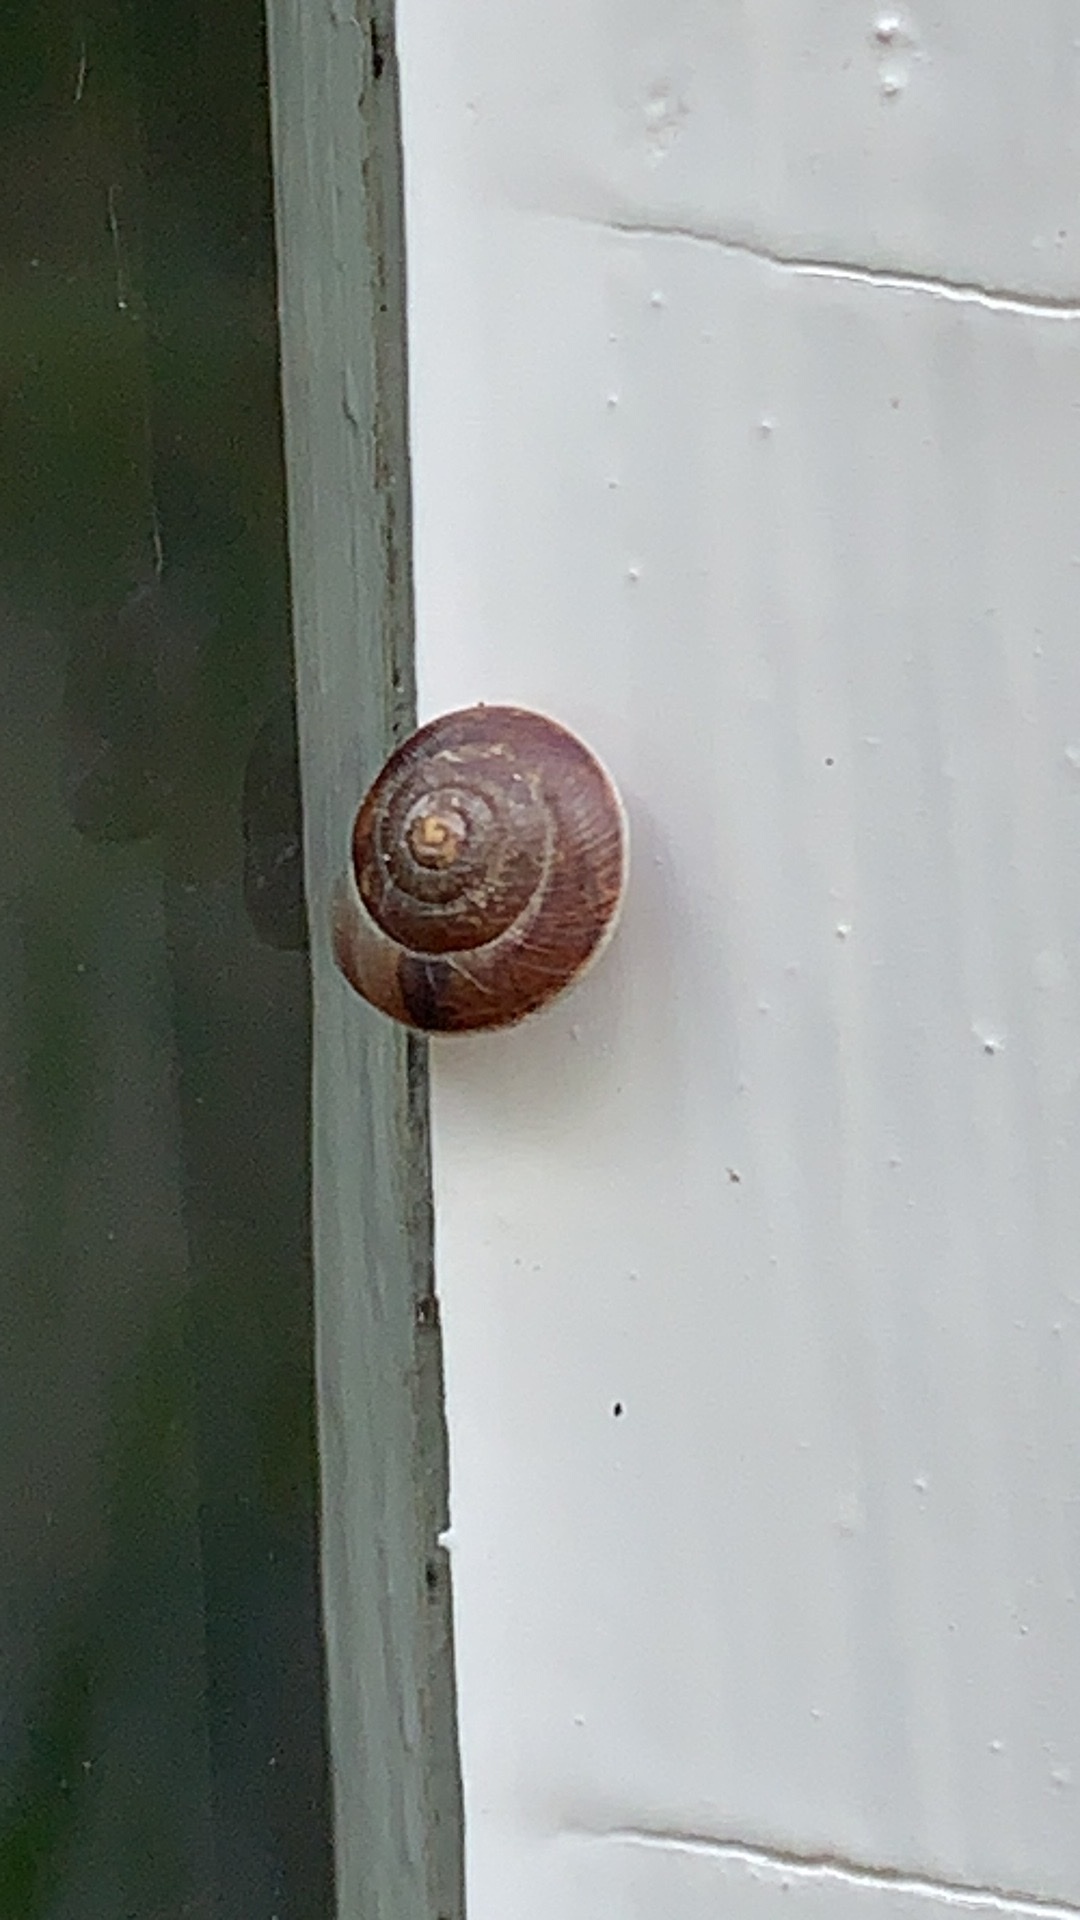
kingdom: Animalia
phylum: Mollusca
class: Gastropoda
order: Stylommatophora
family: Hygromiidae
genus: Hygromia
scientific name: Hygromia cinctella
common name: Girdled snail
